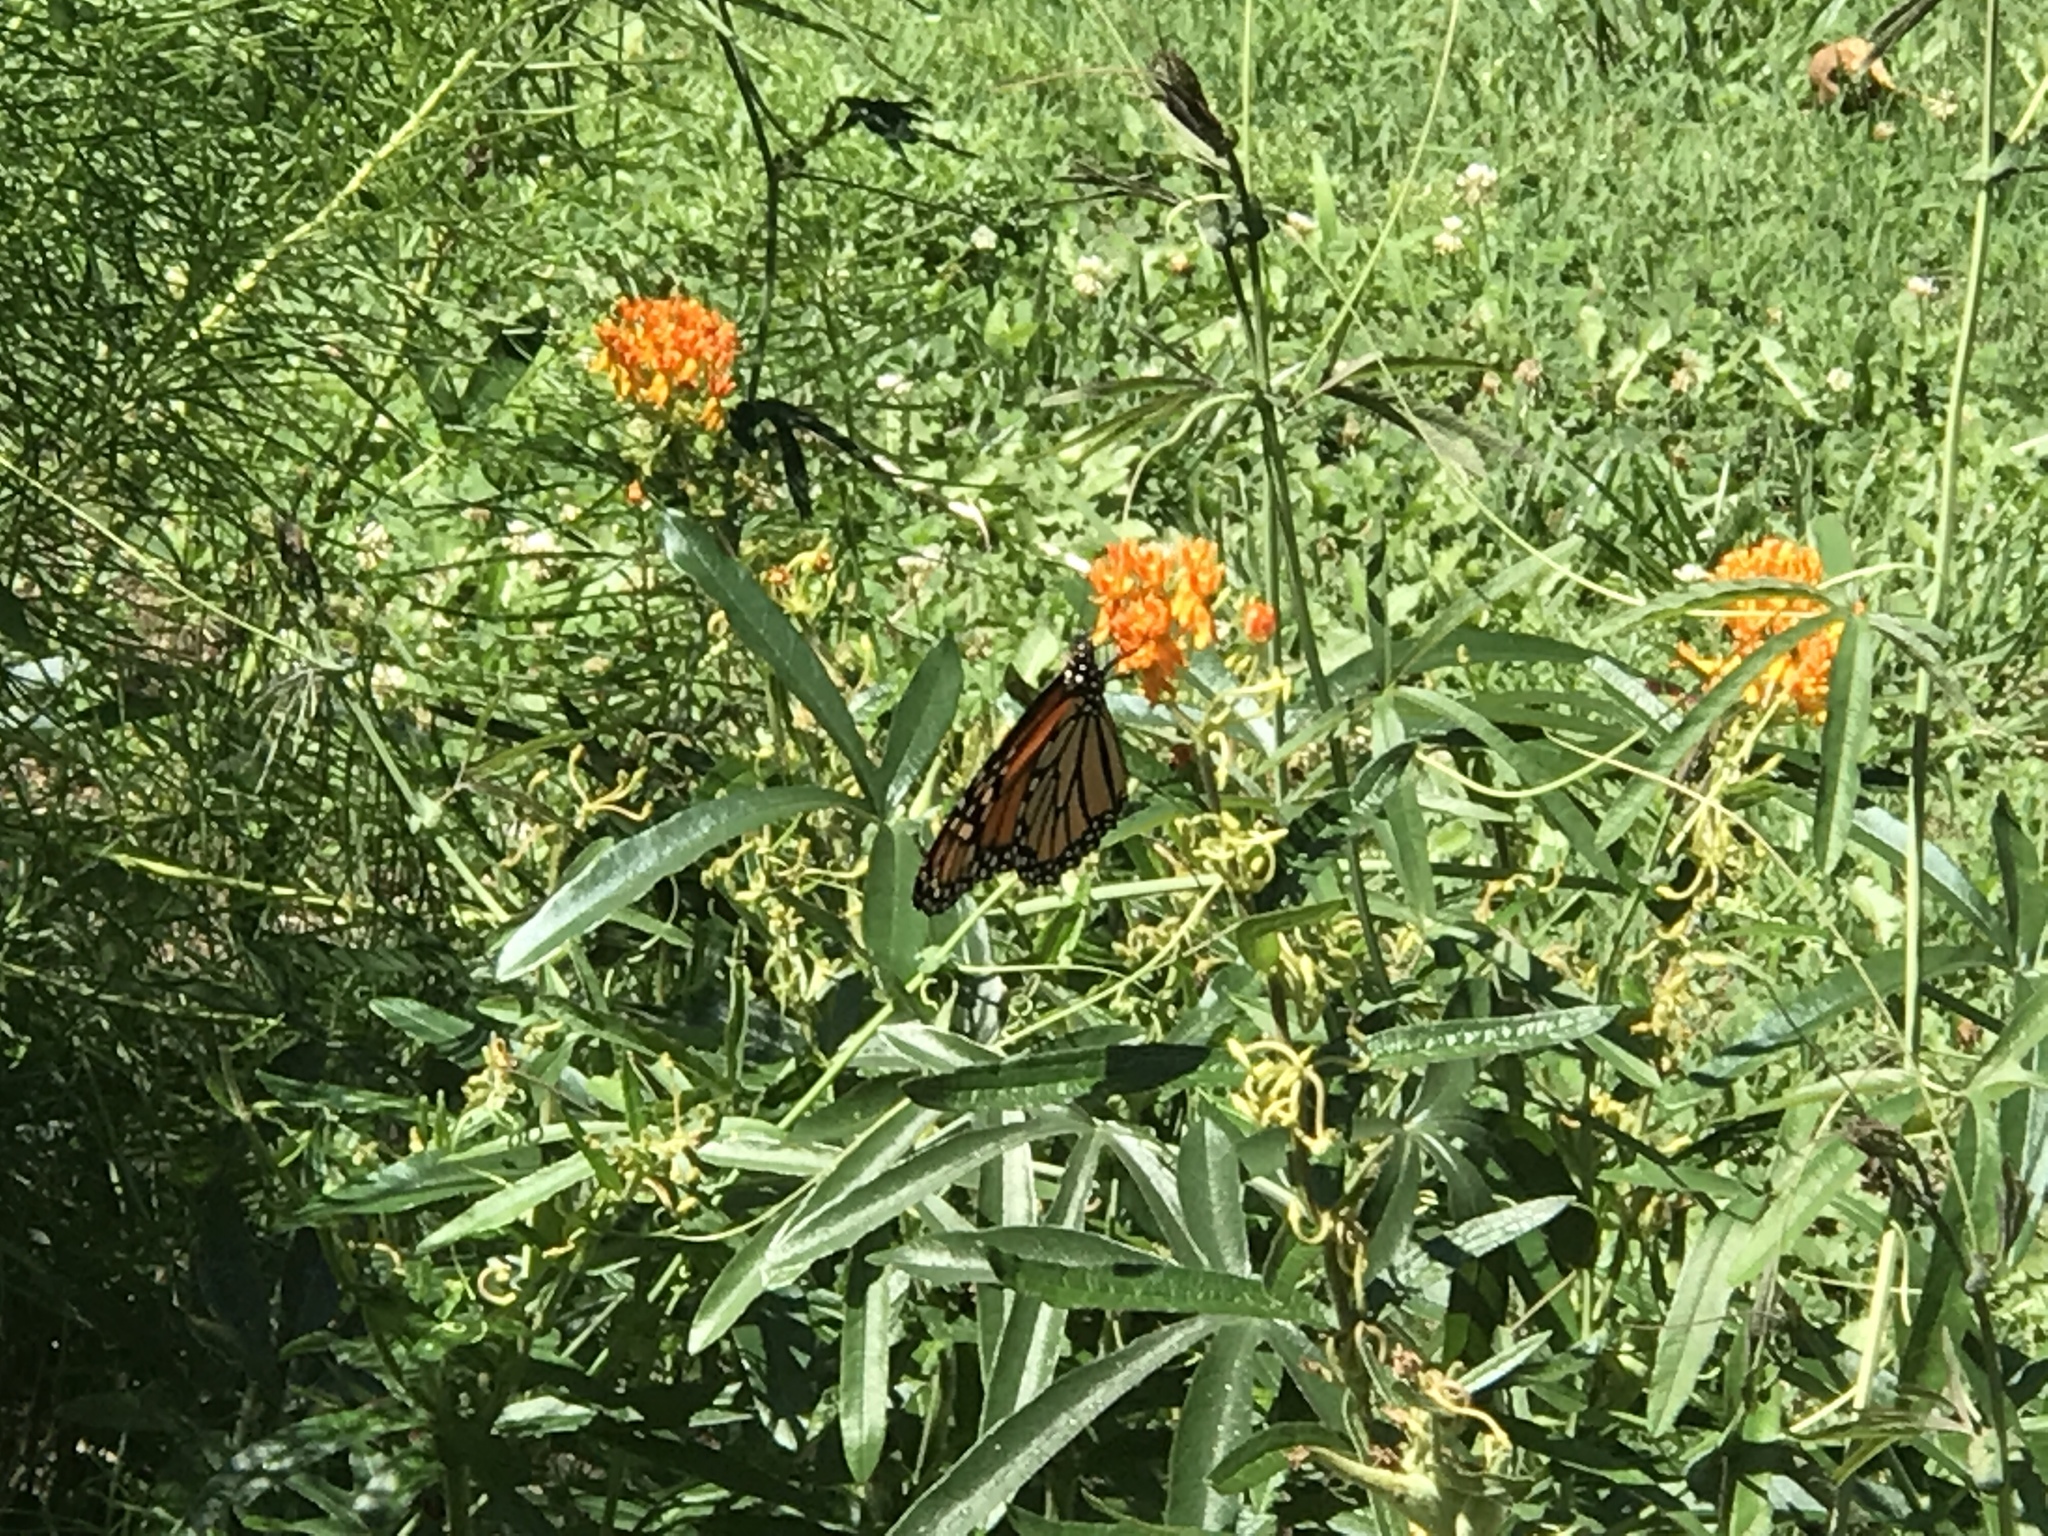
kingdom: Animalia
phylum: Arthropoda
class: Insecta
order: Lepidoptera
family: Nymphalidae
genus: Danaus
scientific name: Danaus plexippus
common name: Monarch
